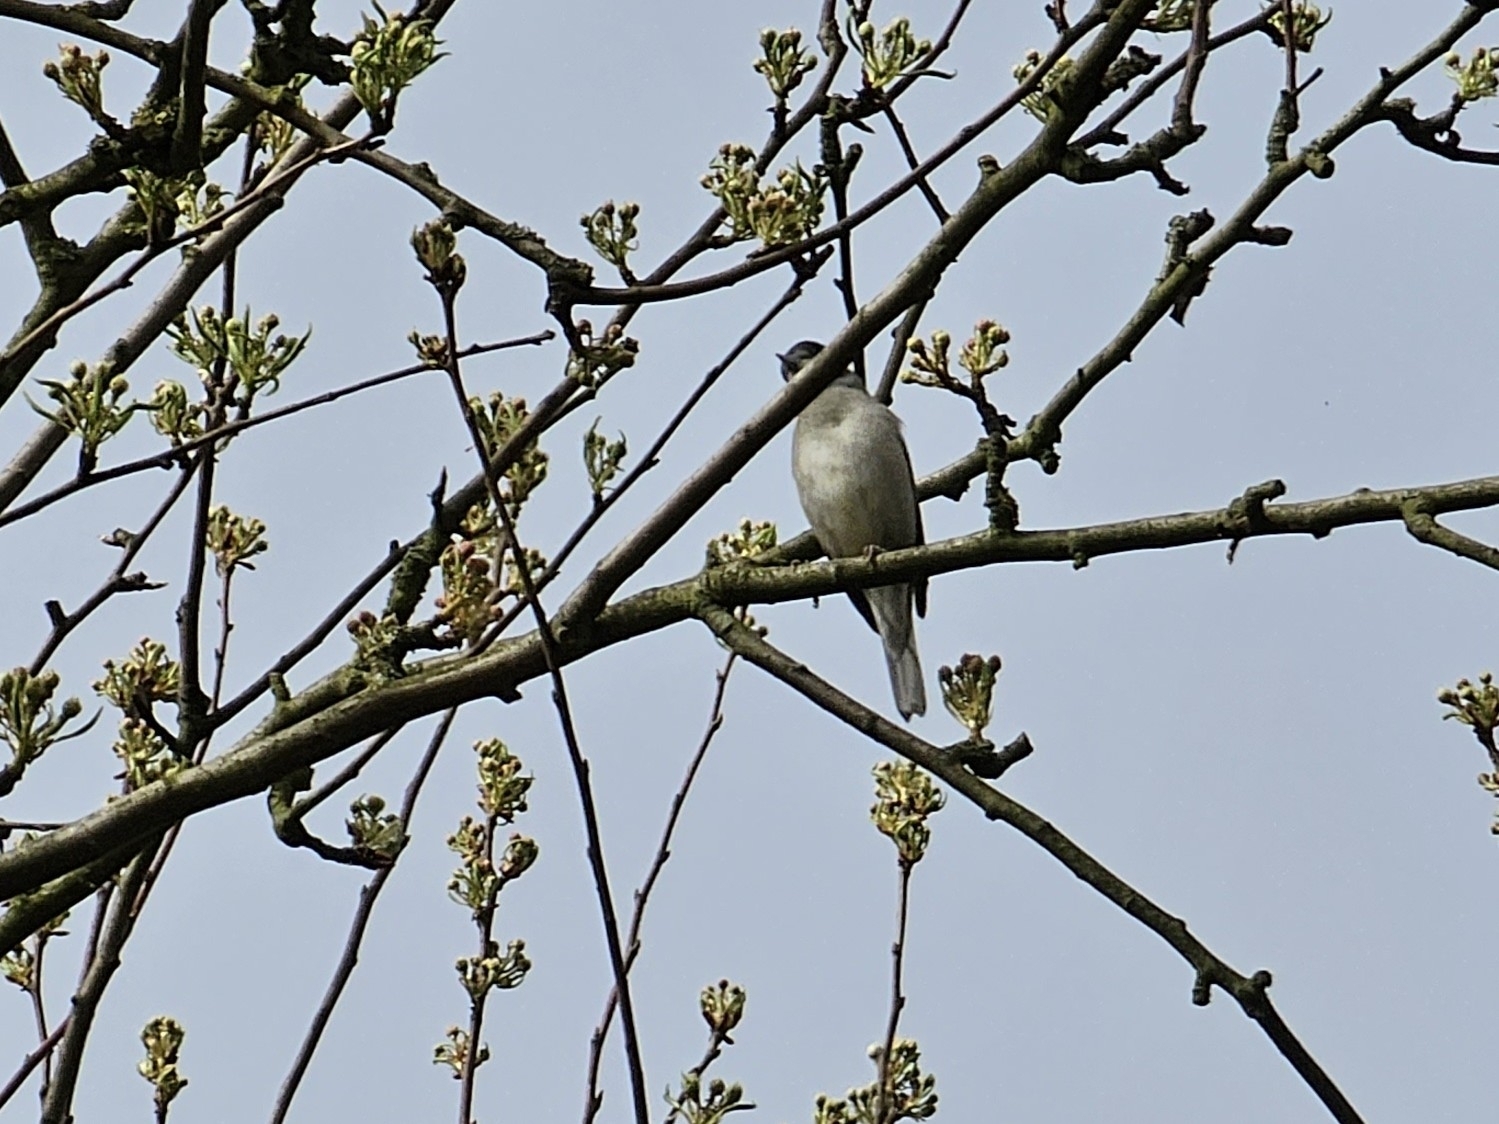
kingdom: Animalia
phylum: Chordata
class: Aves
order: Passeriformes
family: Sylviidae
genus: Sylvia
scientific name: Sylvia atricapilla
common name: Eurasian blackcap
